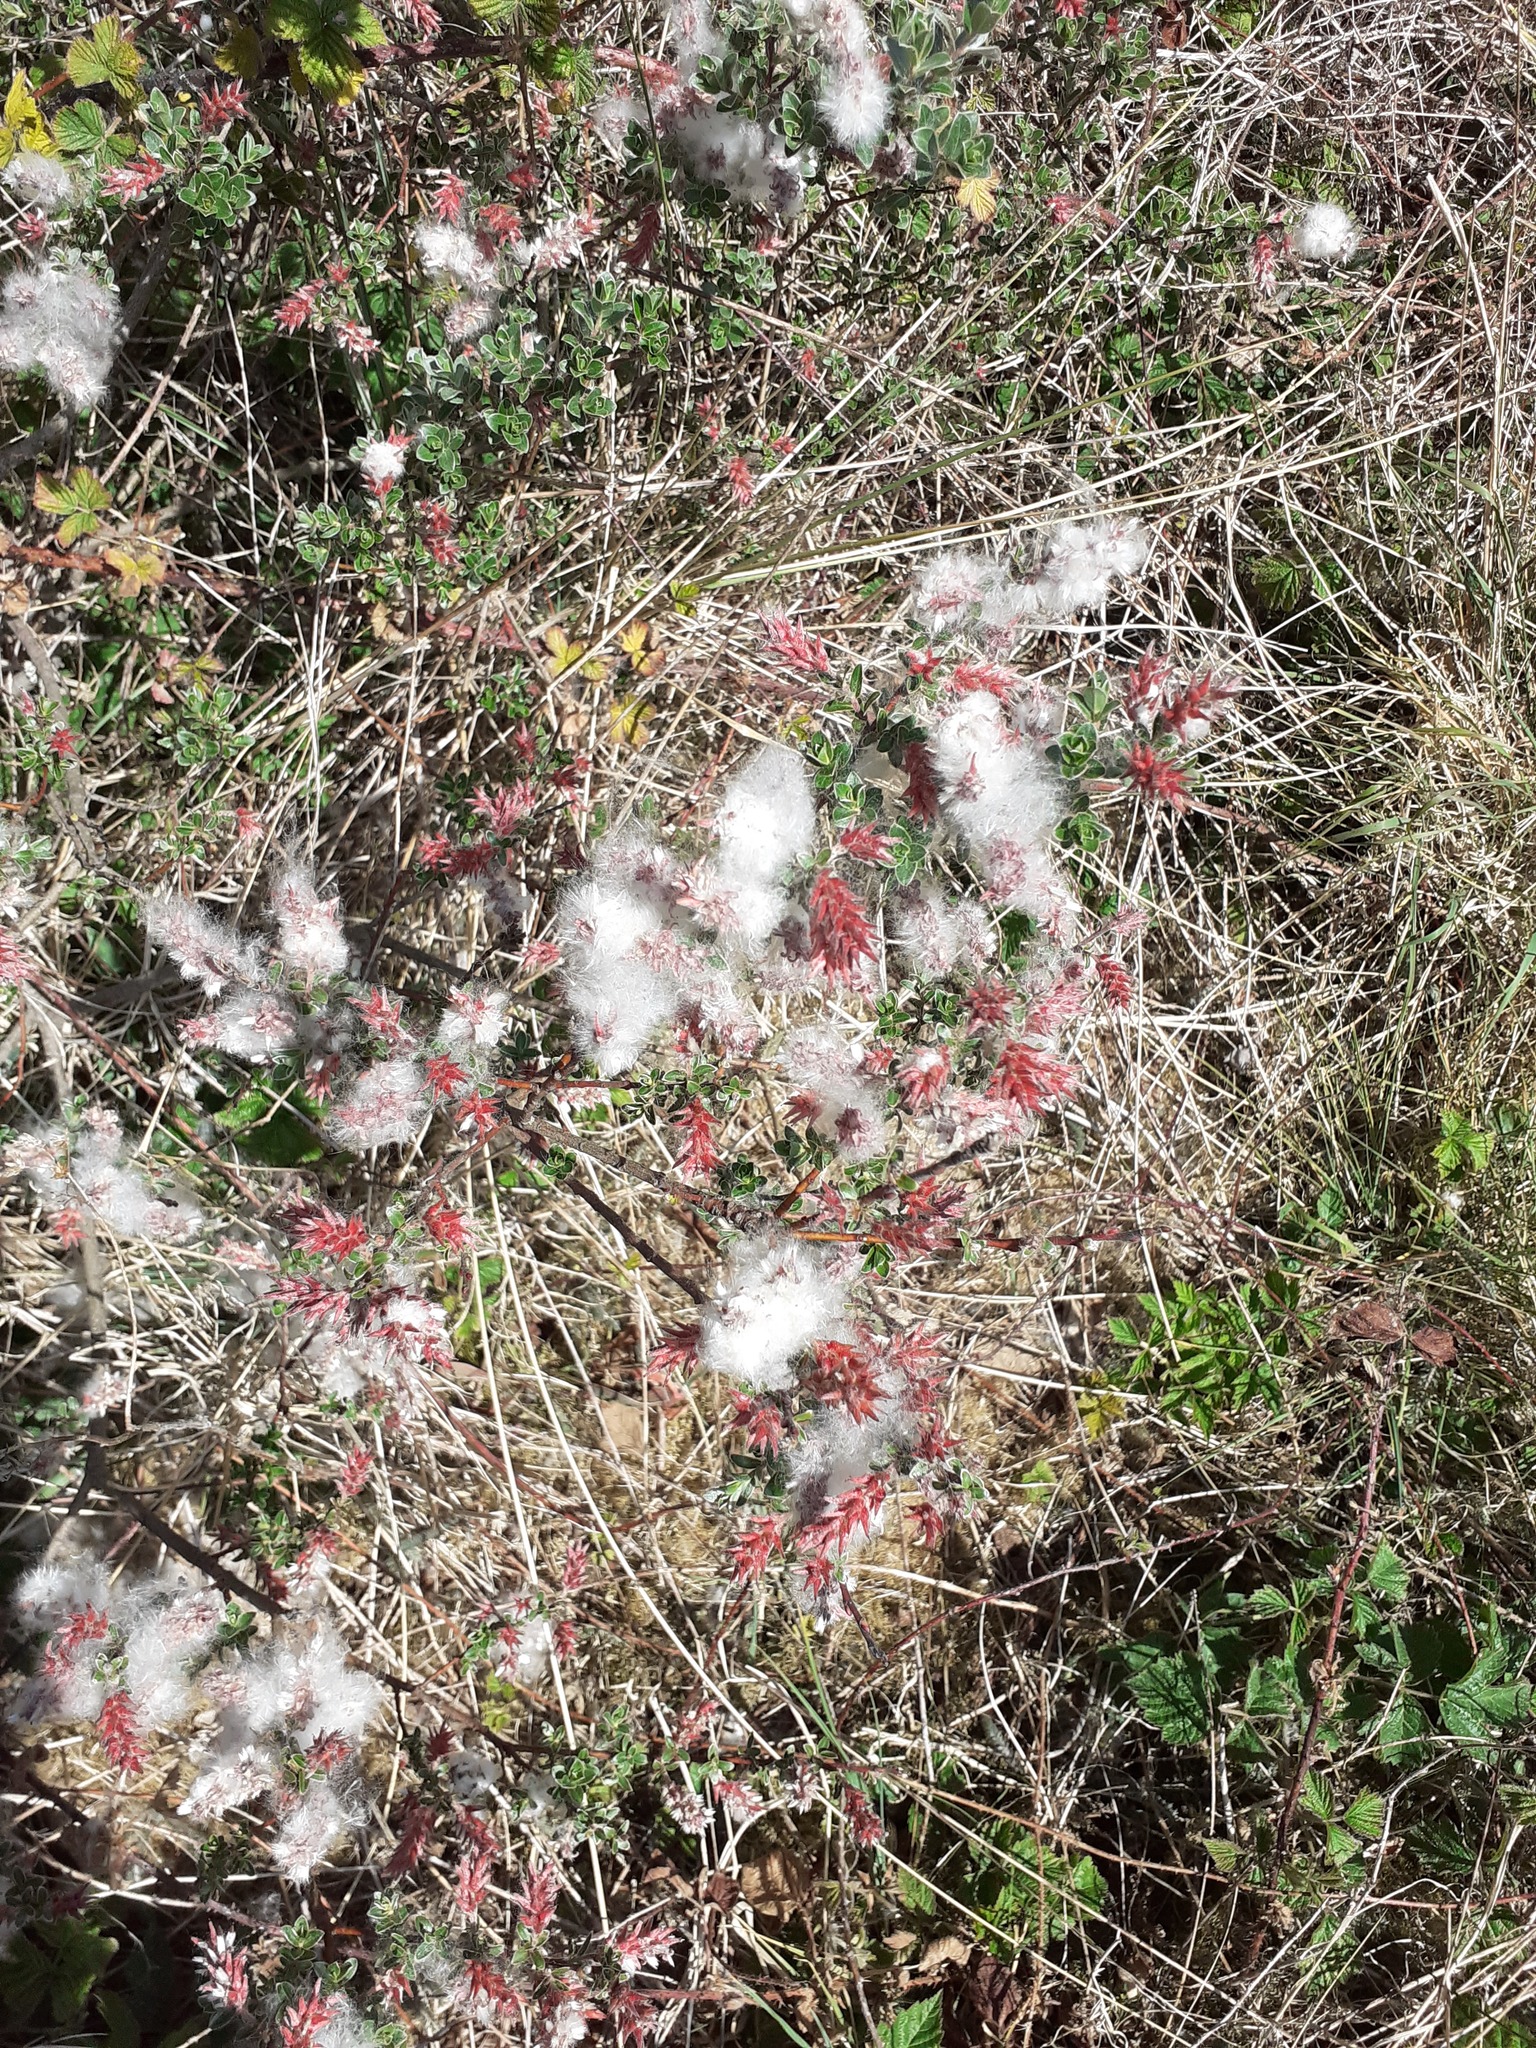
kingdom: Plantae
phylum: Tracheophyta
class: Magnoliopsida
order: Malpighiales
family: Salicaceae
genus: Salix
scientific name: Salix repens
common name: Creeping willow
